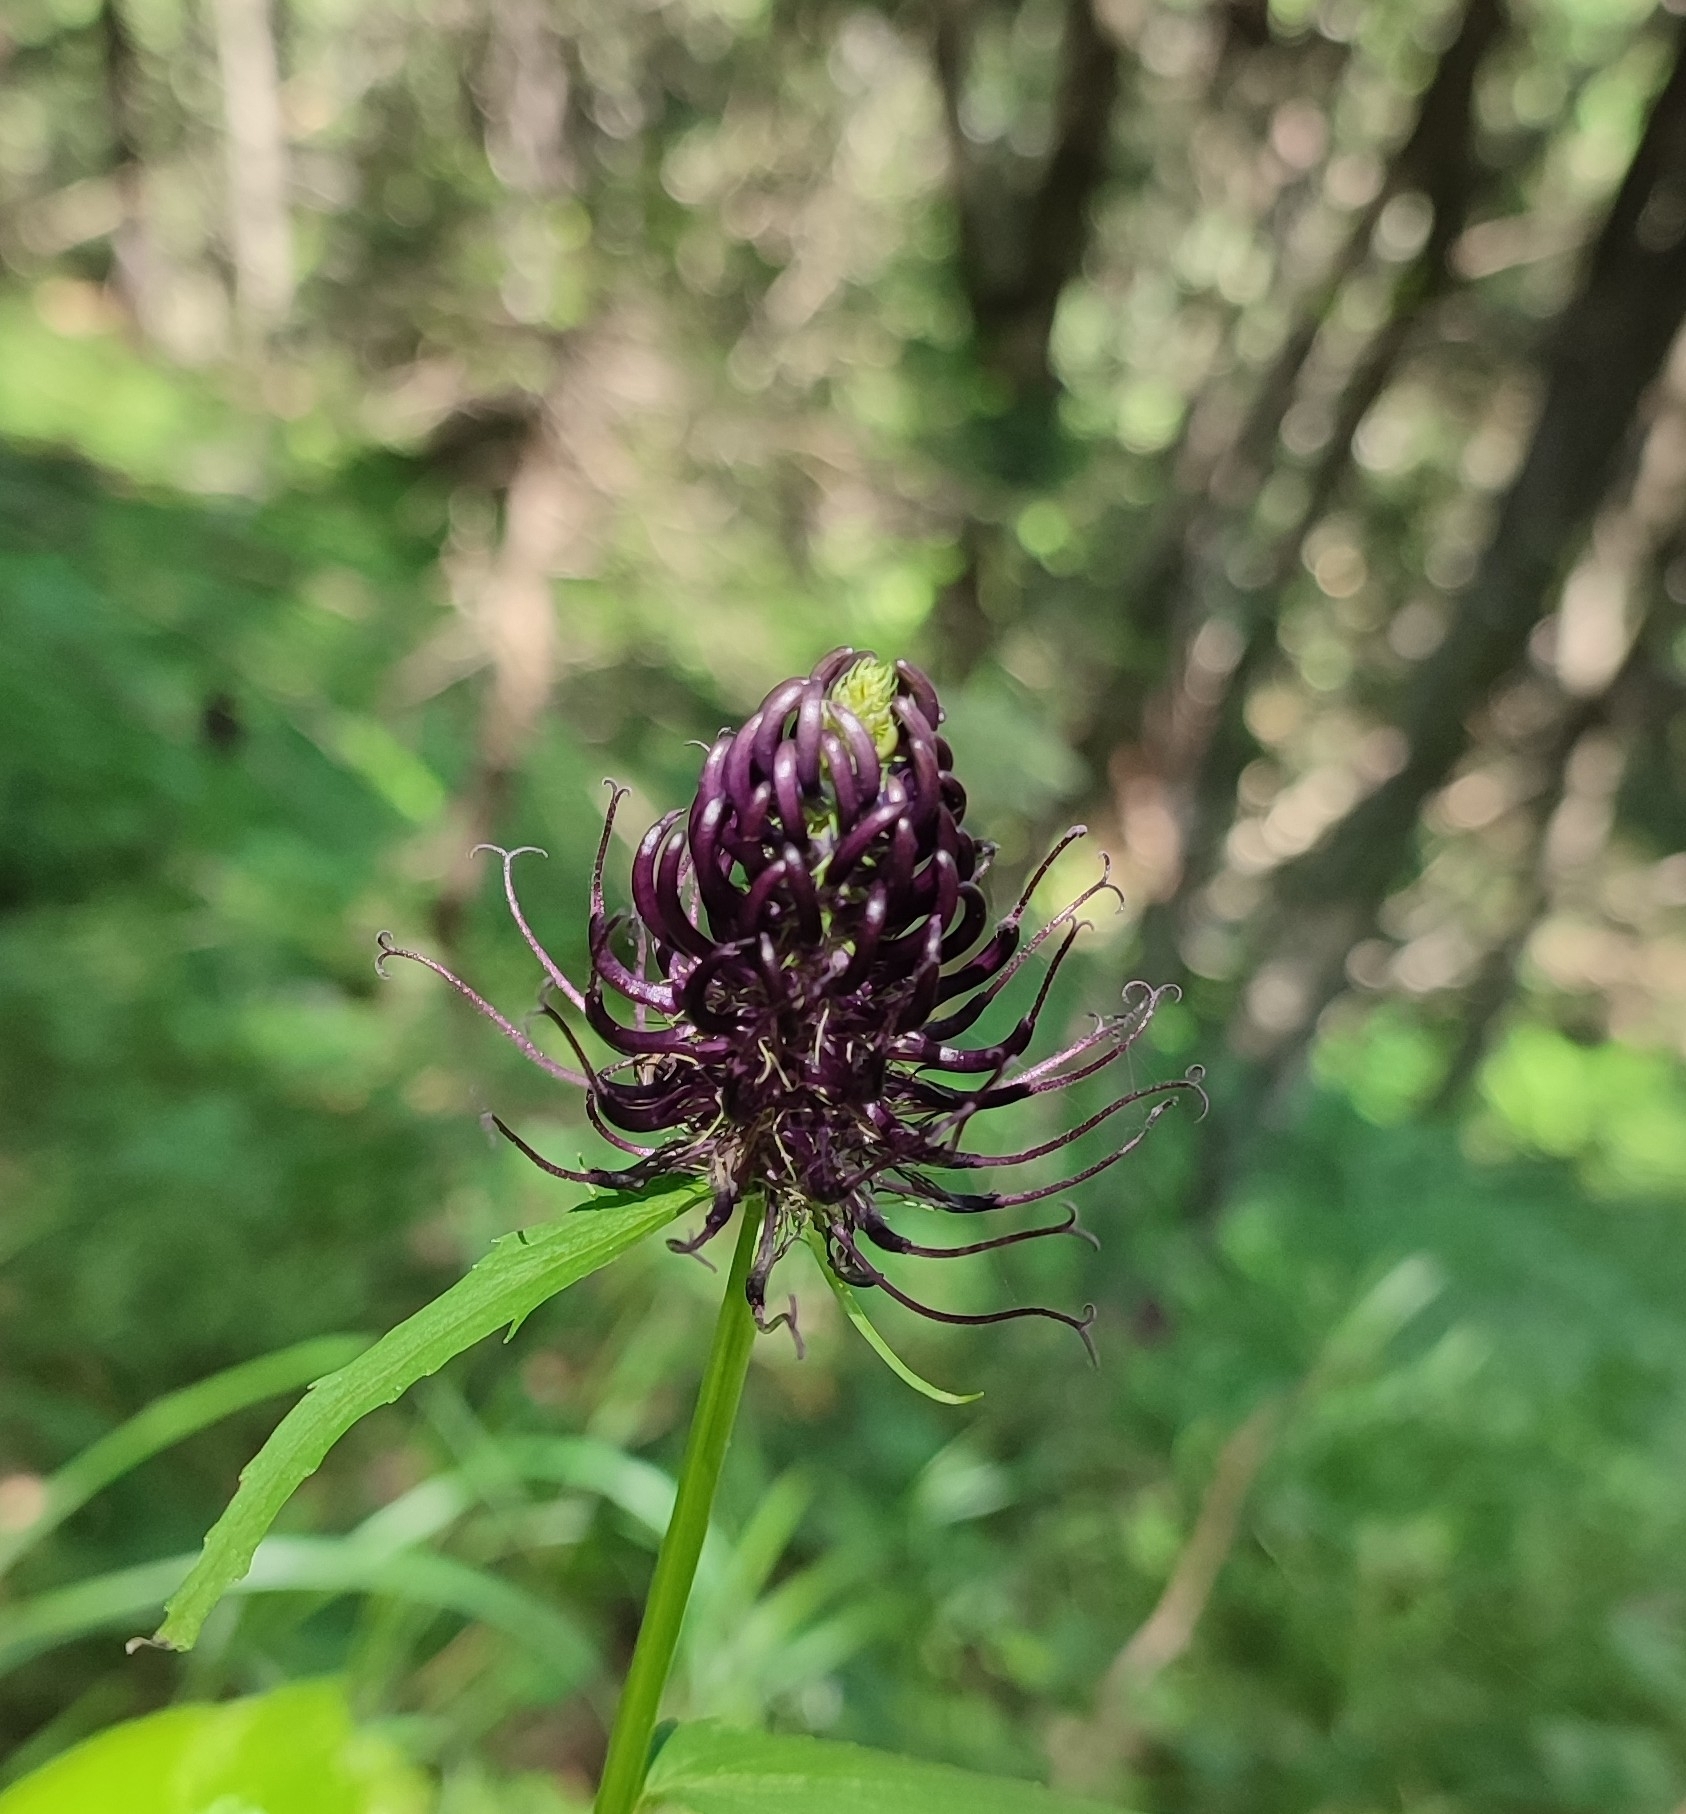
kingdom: Plantae
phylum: Tracheophyta
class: Magnoliopsida
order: Asterales
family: Campanulaceae
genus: Phyteuma
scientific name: Phyteuma ovatum
